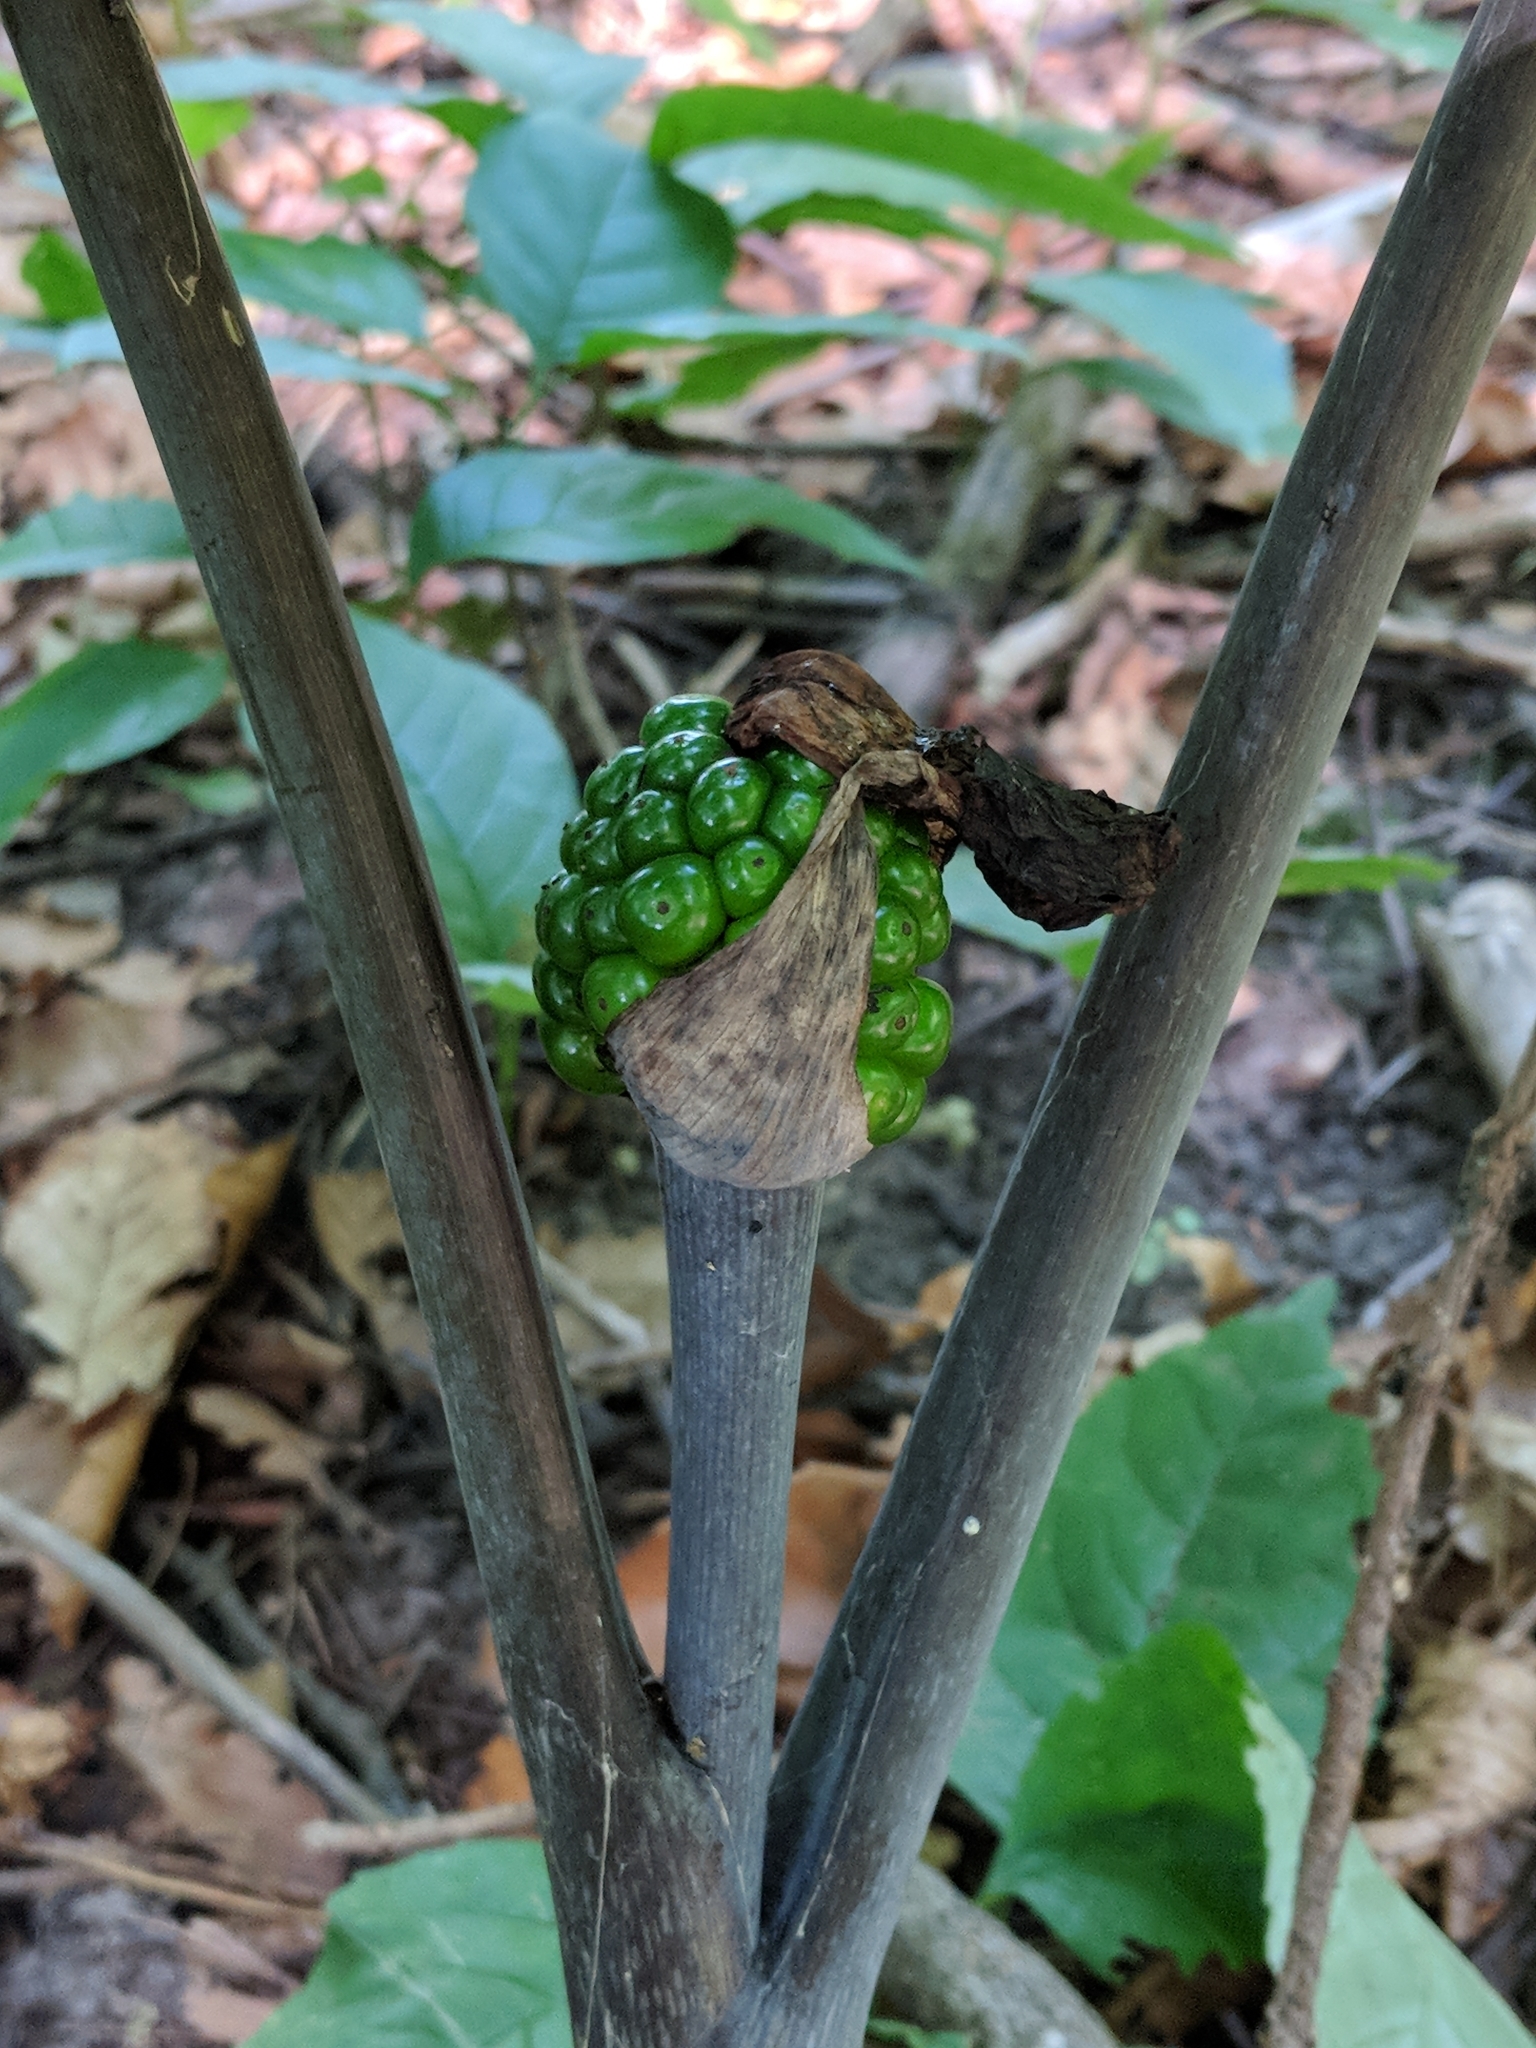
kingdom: Plantae
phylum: Tracheophyta
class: Liliopsida
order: Alismatales
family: Araceae
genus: Arisaema
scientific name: Arisaema triphyllum
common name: Jack-in-the-pulpit
